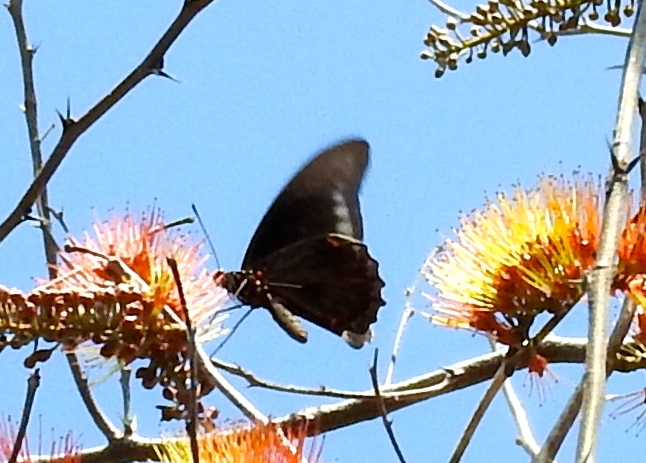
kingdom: Animalia
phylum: Arthropoda
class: Insecta
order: Lepidoptera
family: Papilionidae
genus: Battus
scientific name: Battus
